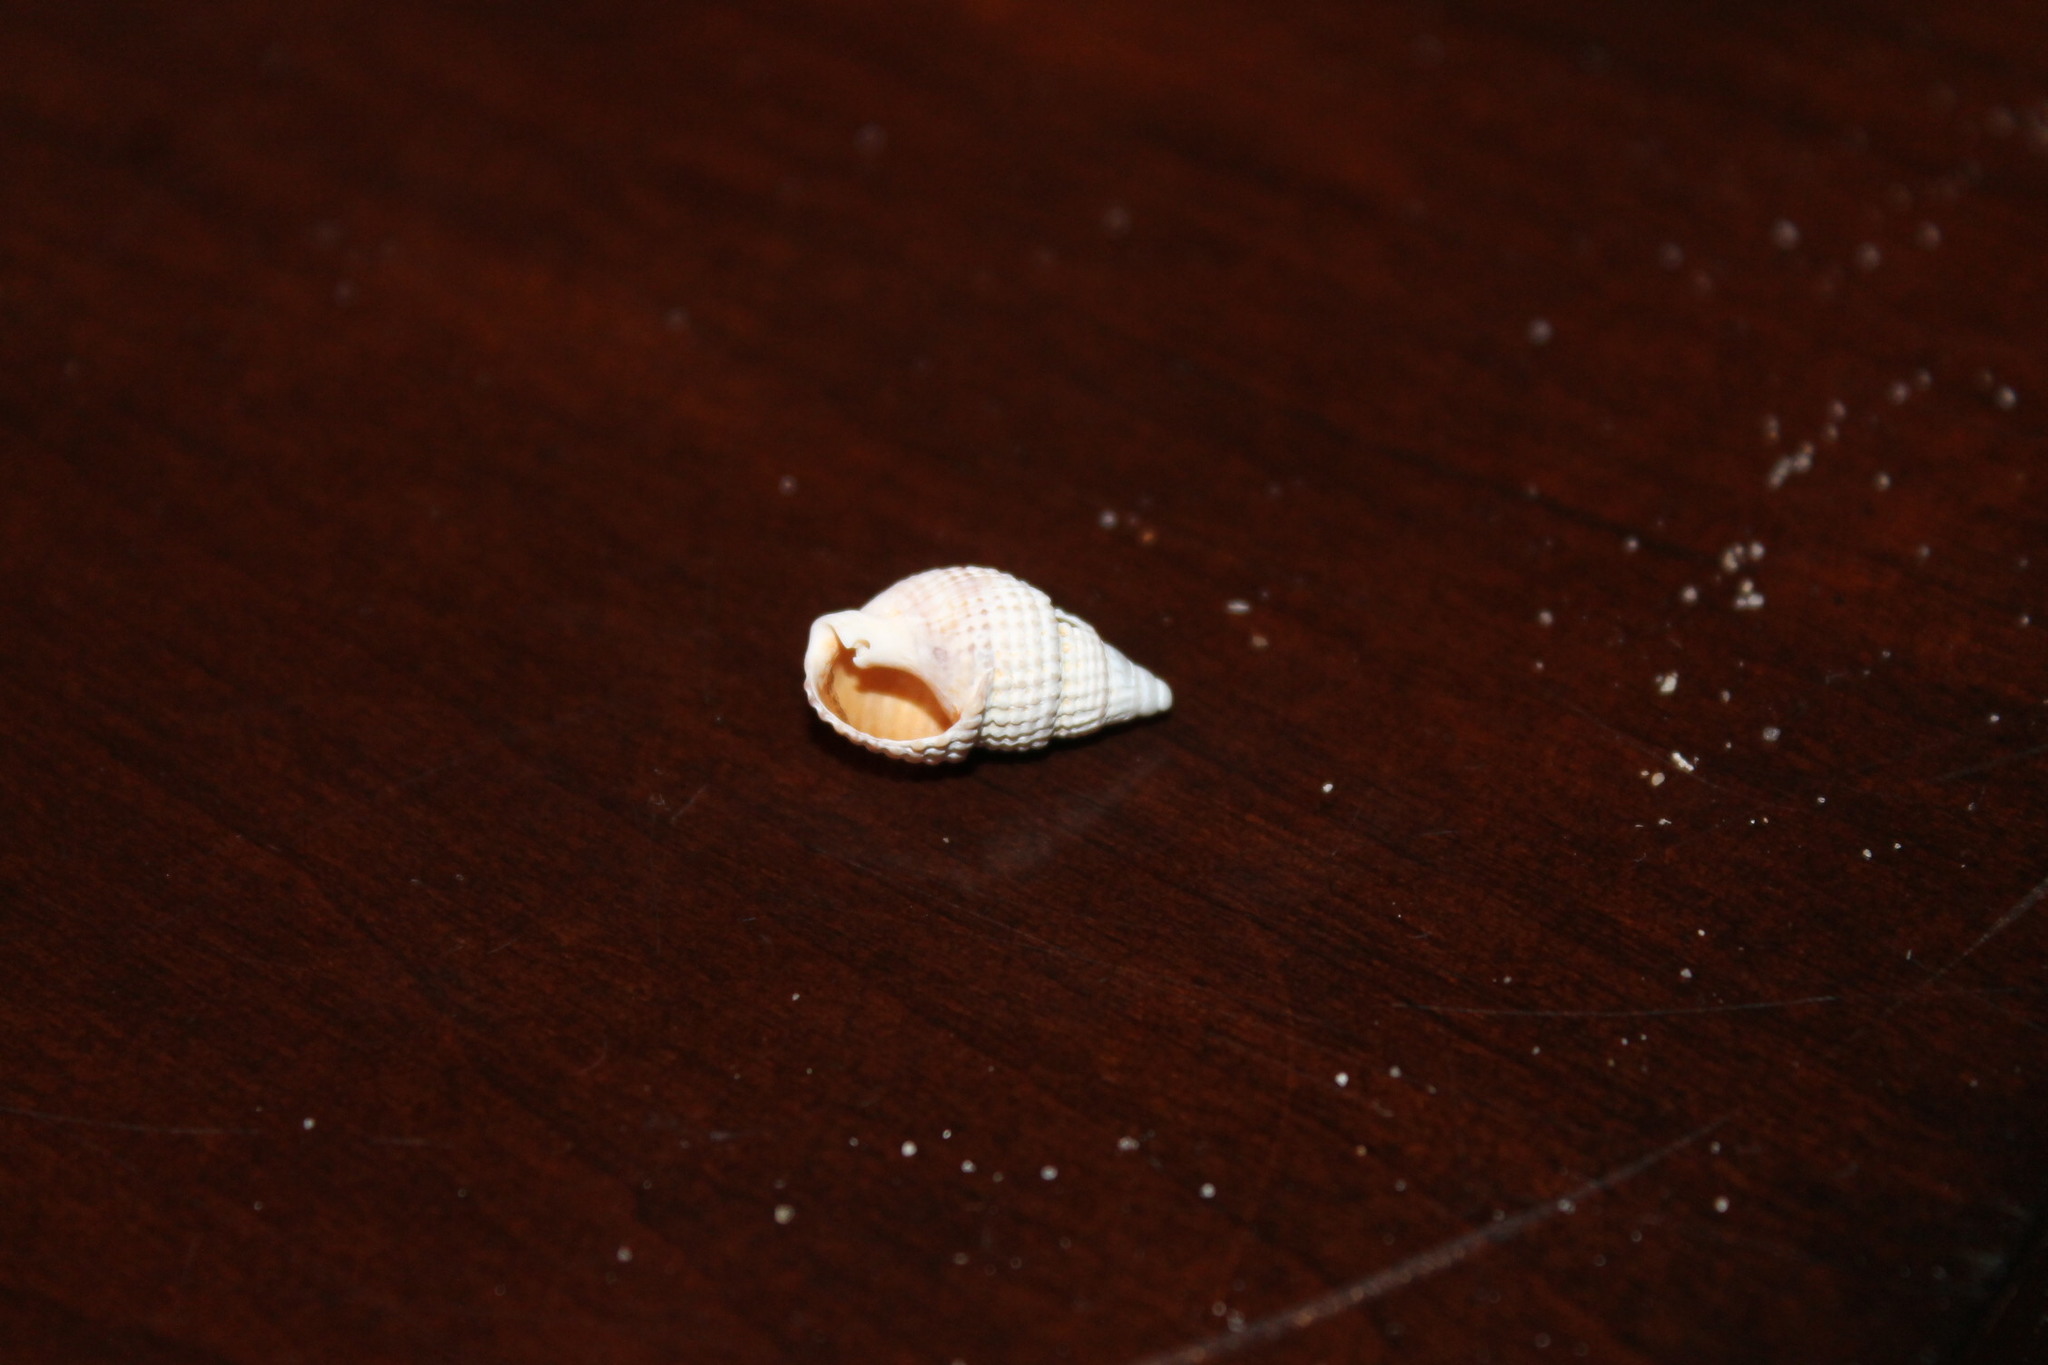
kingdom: Animalia
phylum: Mollusca
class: Gastropoda
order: Neogastropoda
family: Nassariidae
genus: Ilyanassa
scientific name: Ilyanassa trivittata
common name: Three-line mudsnail
